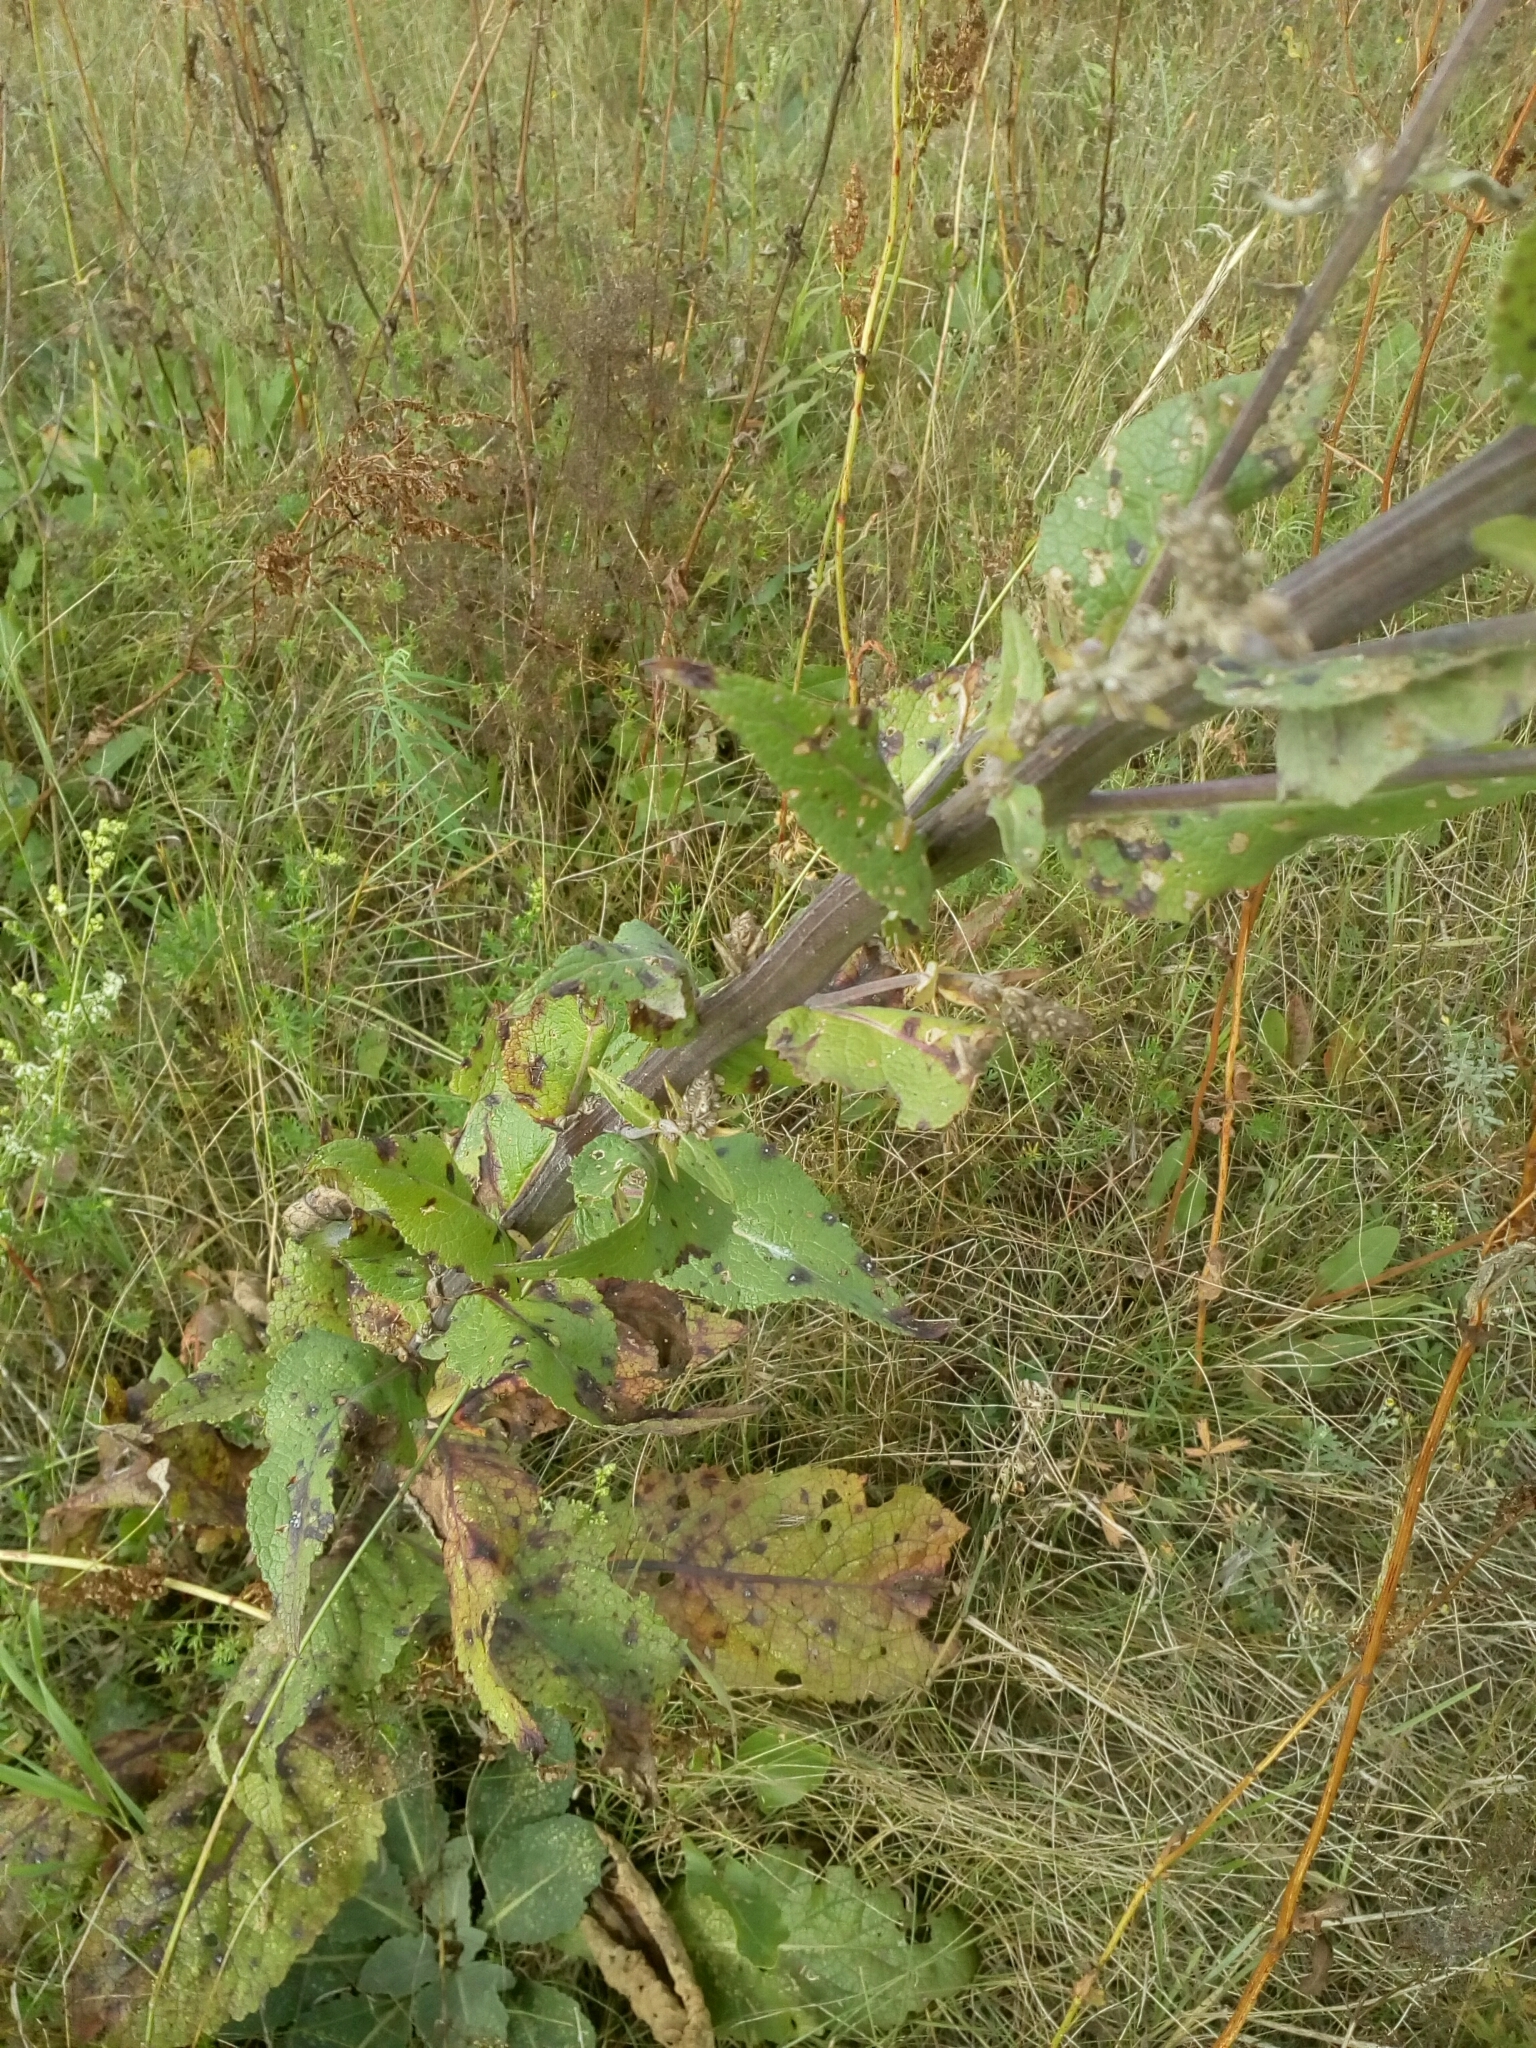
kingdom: Plantae
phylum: Tracheophyta
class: Magnoliopsida
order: Lamiales
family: Scrophulariaceae
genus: Verbascum
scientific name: Verbascum lychnitis
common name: White mullein
